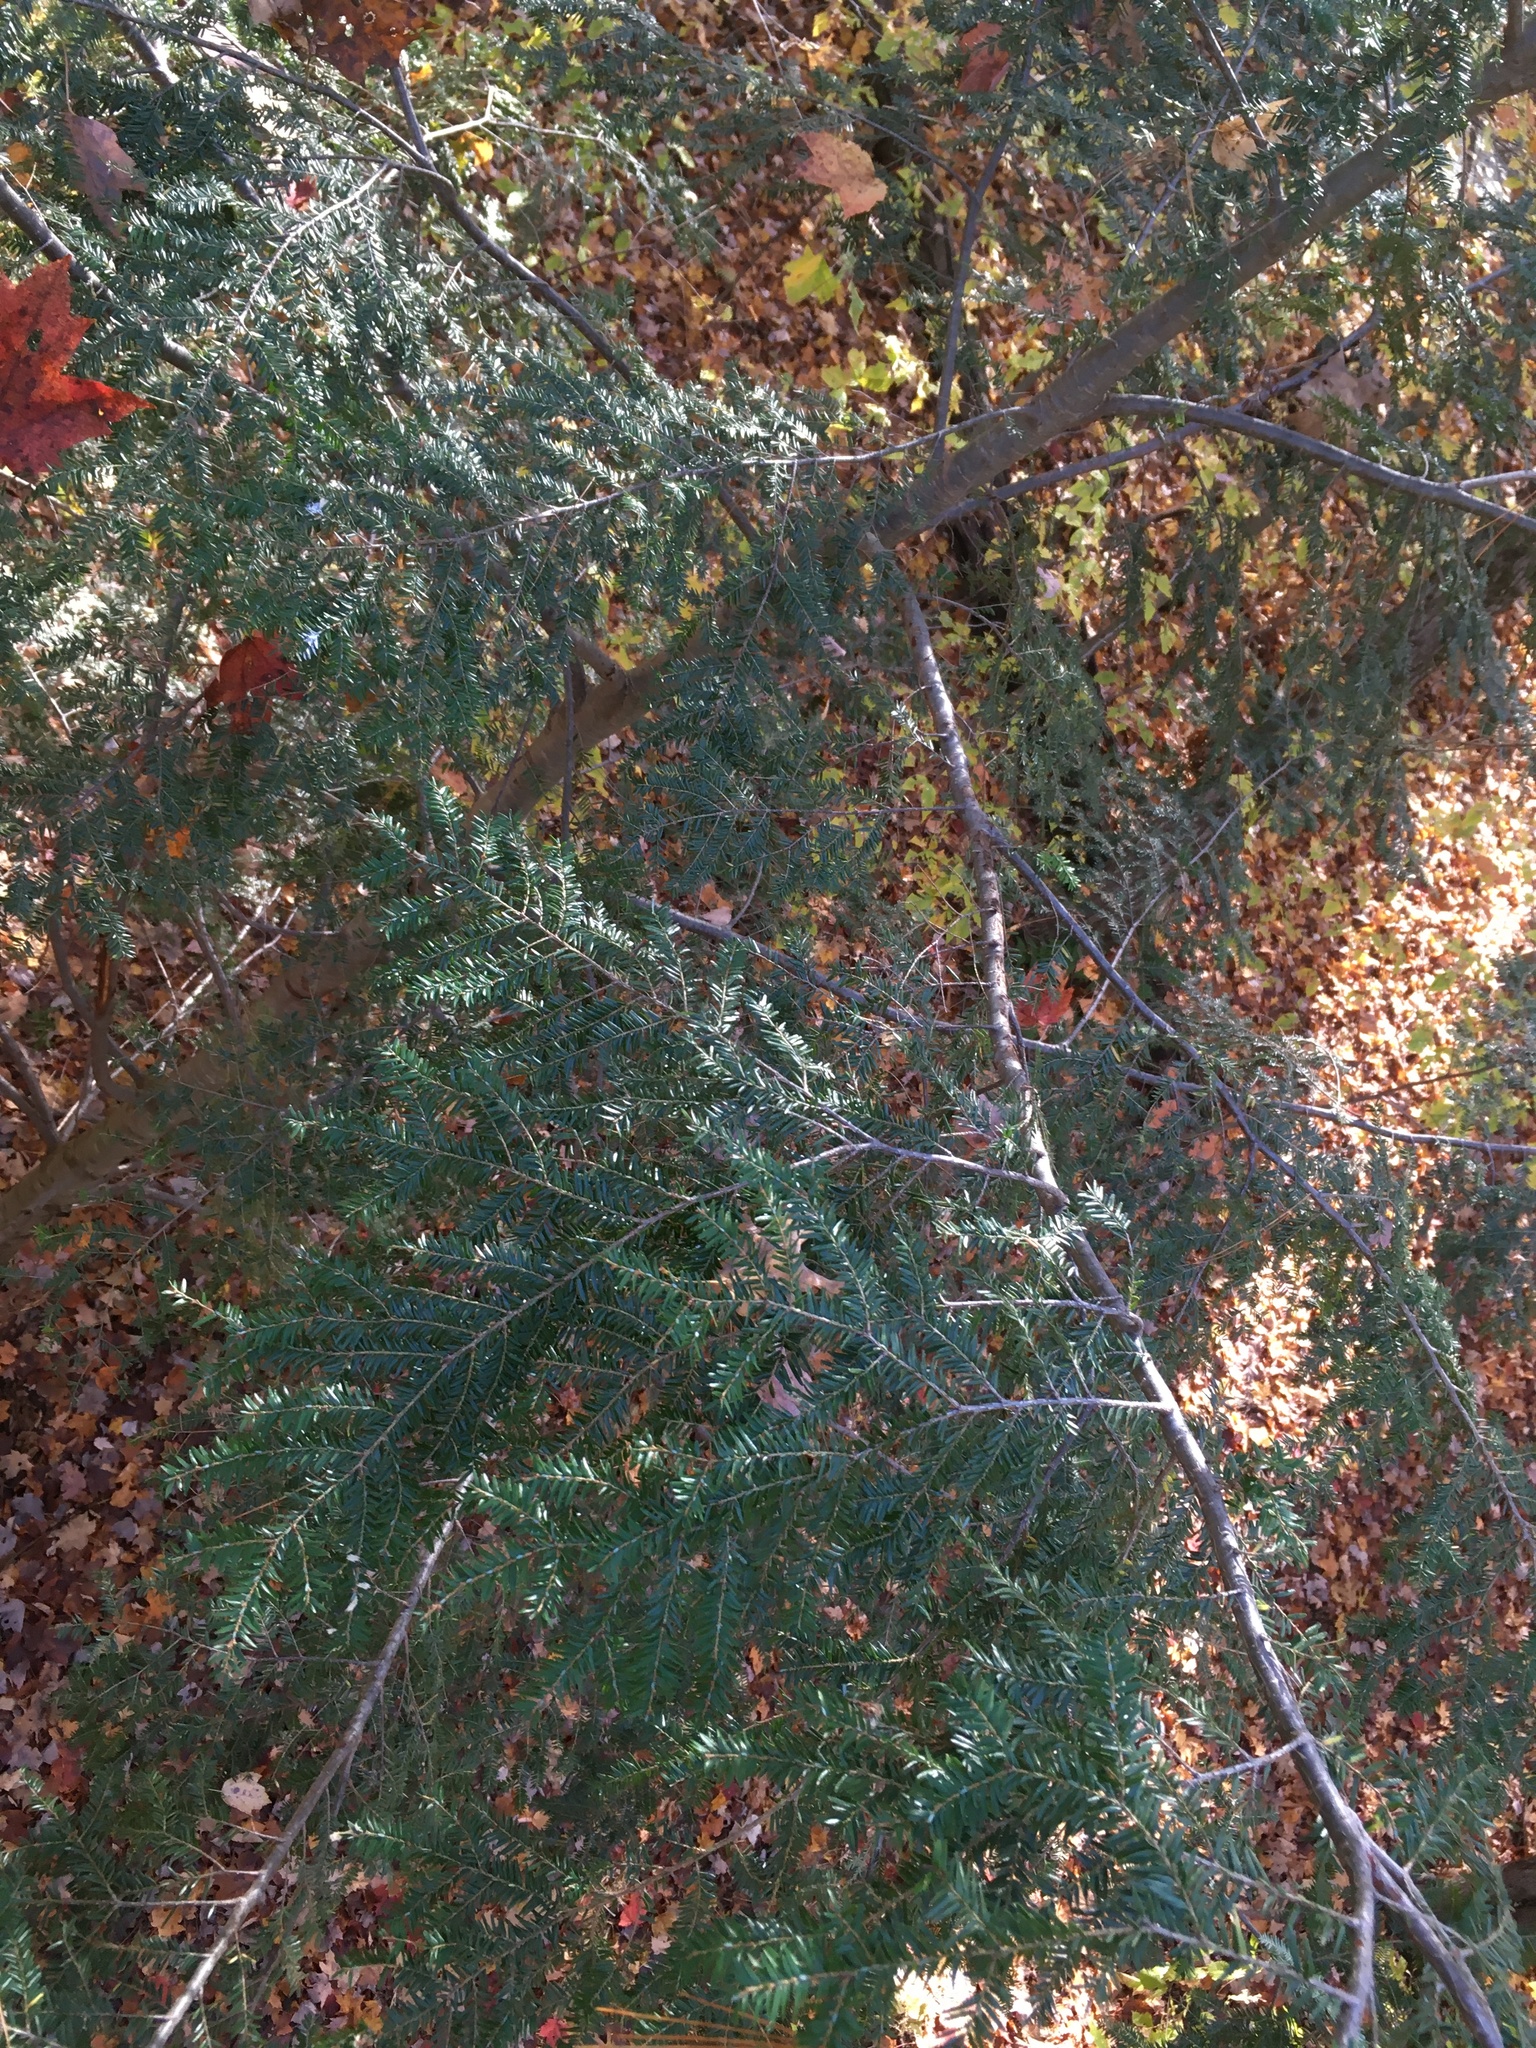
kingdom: Plantae
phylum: Tracheophyta
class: Pinopsida
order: Pinales
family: Pinaceae
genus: Tsuga
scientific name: Tsuga canadensis
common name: Eastern hemlock
